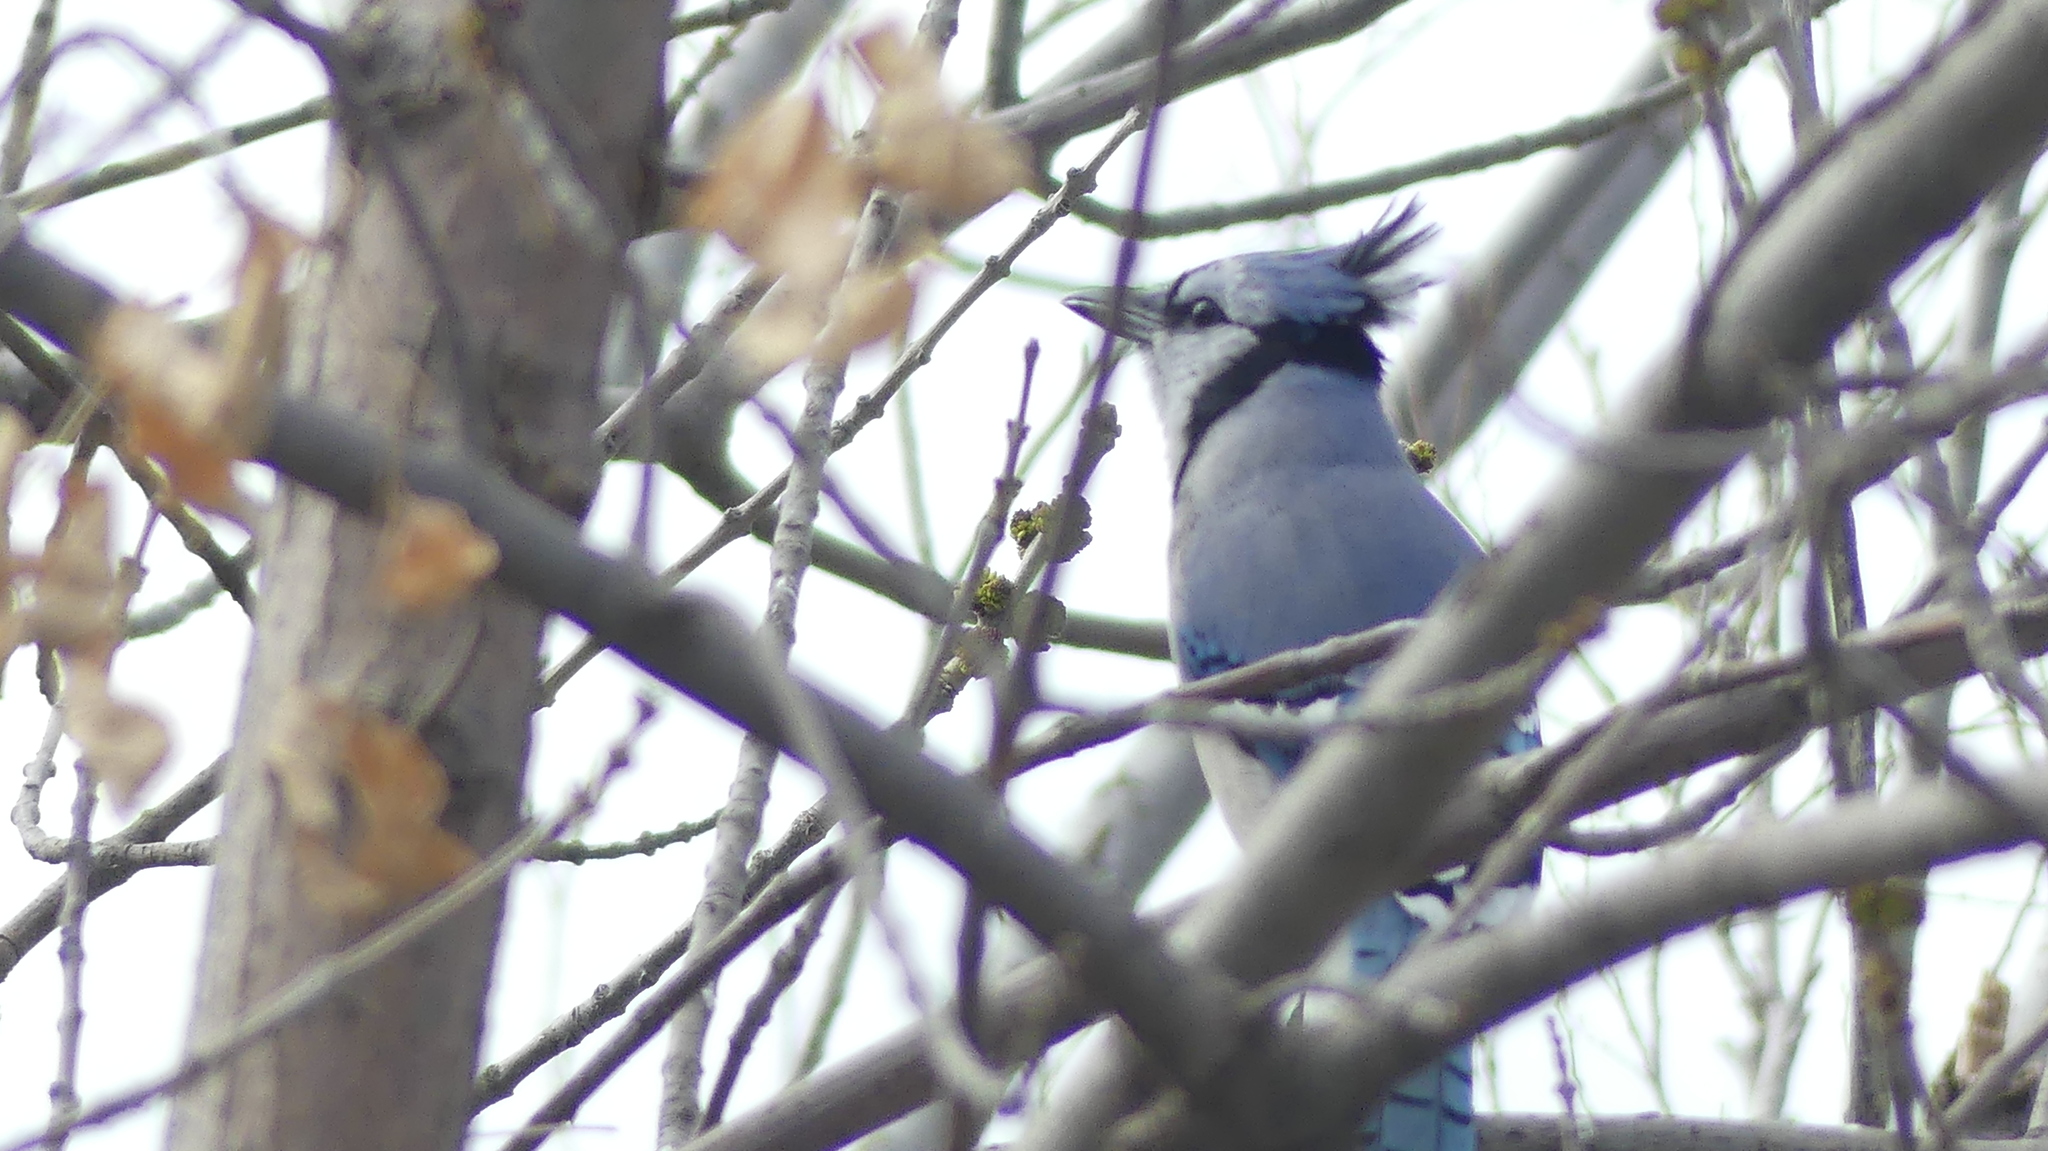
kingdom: Animalia
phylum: Chordata
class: Aves
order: Passeriformes
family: Corvidae
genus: Cyanocitta
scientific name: Cyanocitta cristata
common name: Blue jay
